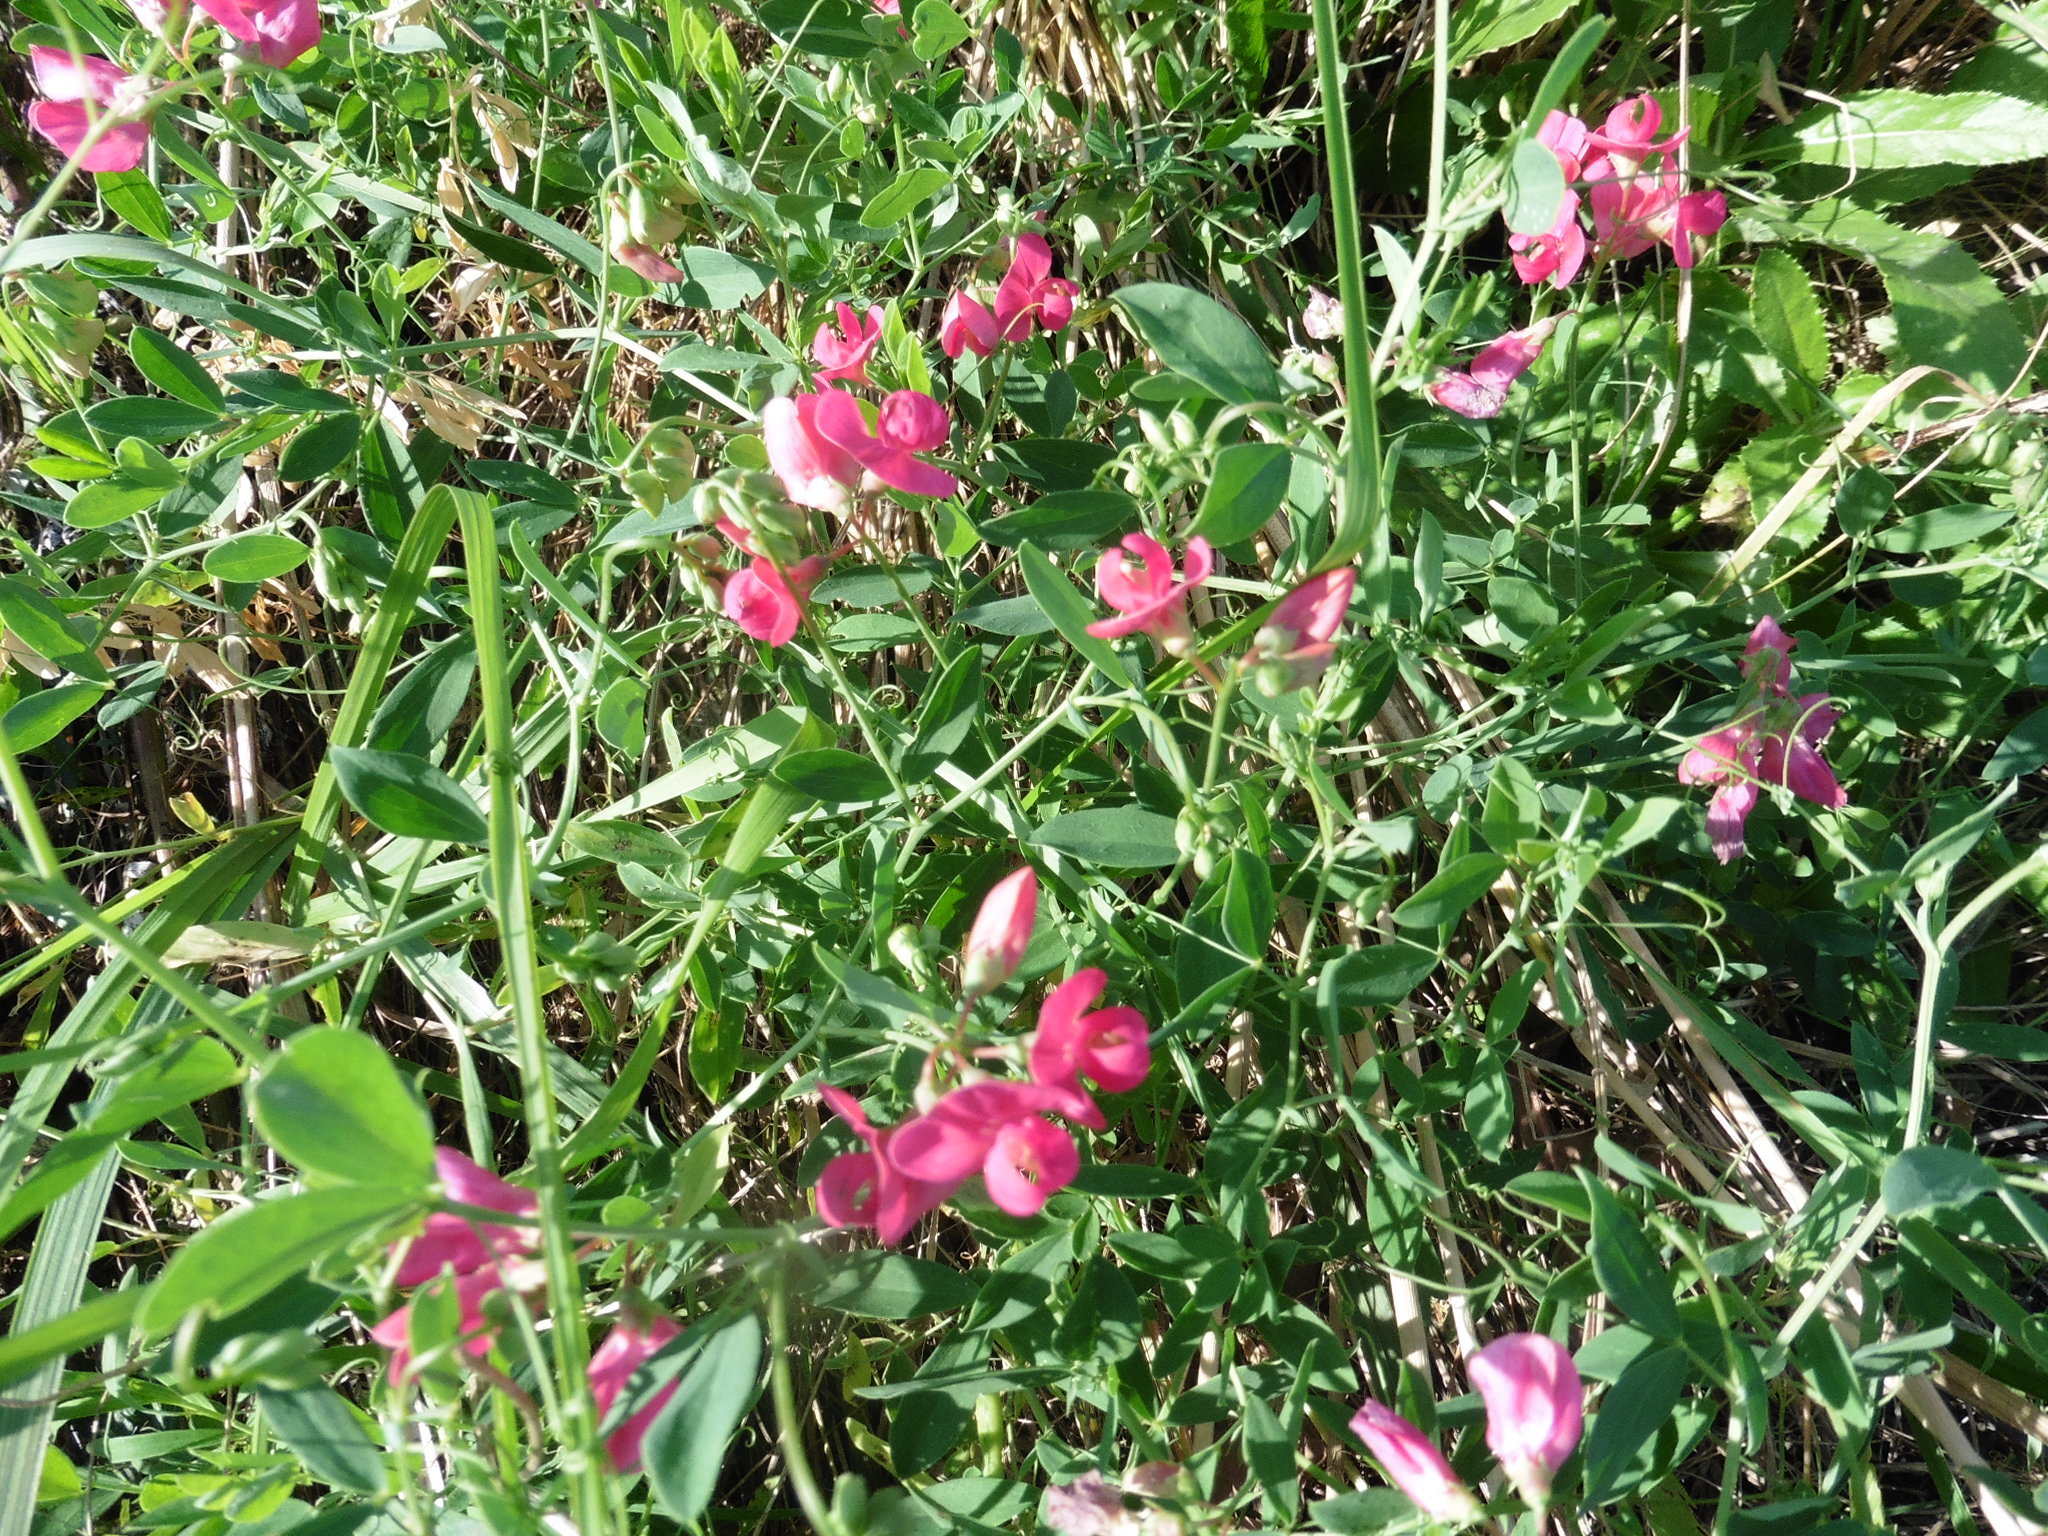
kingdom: Plantae
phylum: Tracheophyta
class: Magnoliopsida
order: Fabales
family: Fabaceae
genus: Lathyrus
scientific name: Lathyrus tuberosus
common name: Tuberous pea
